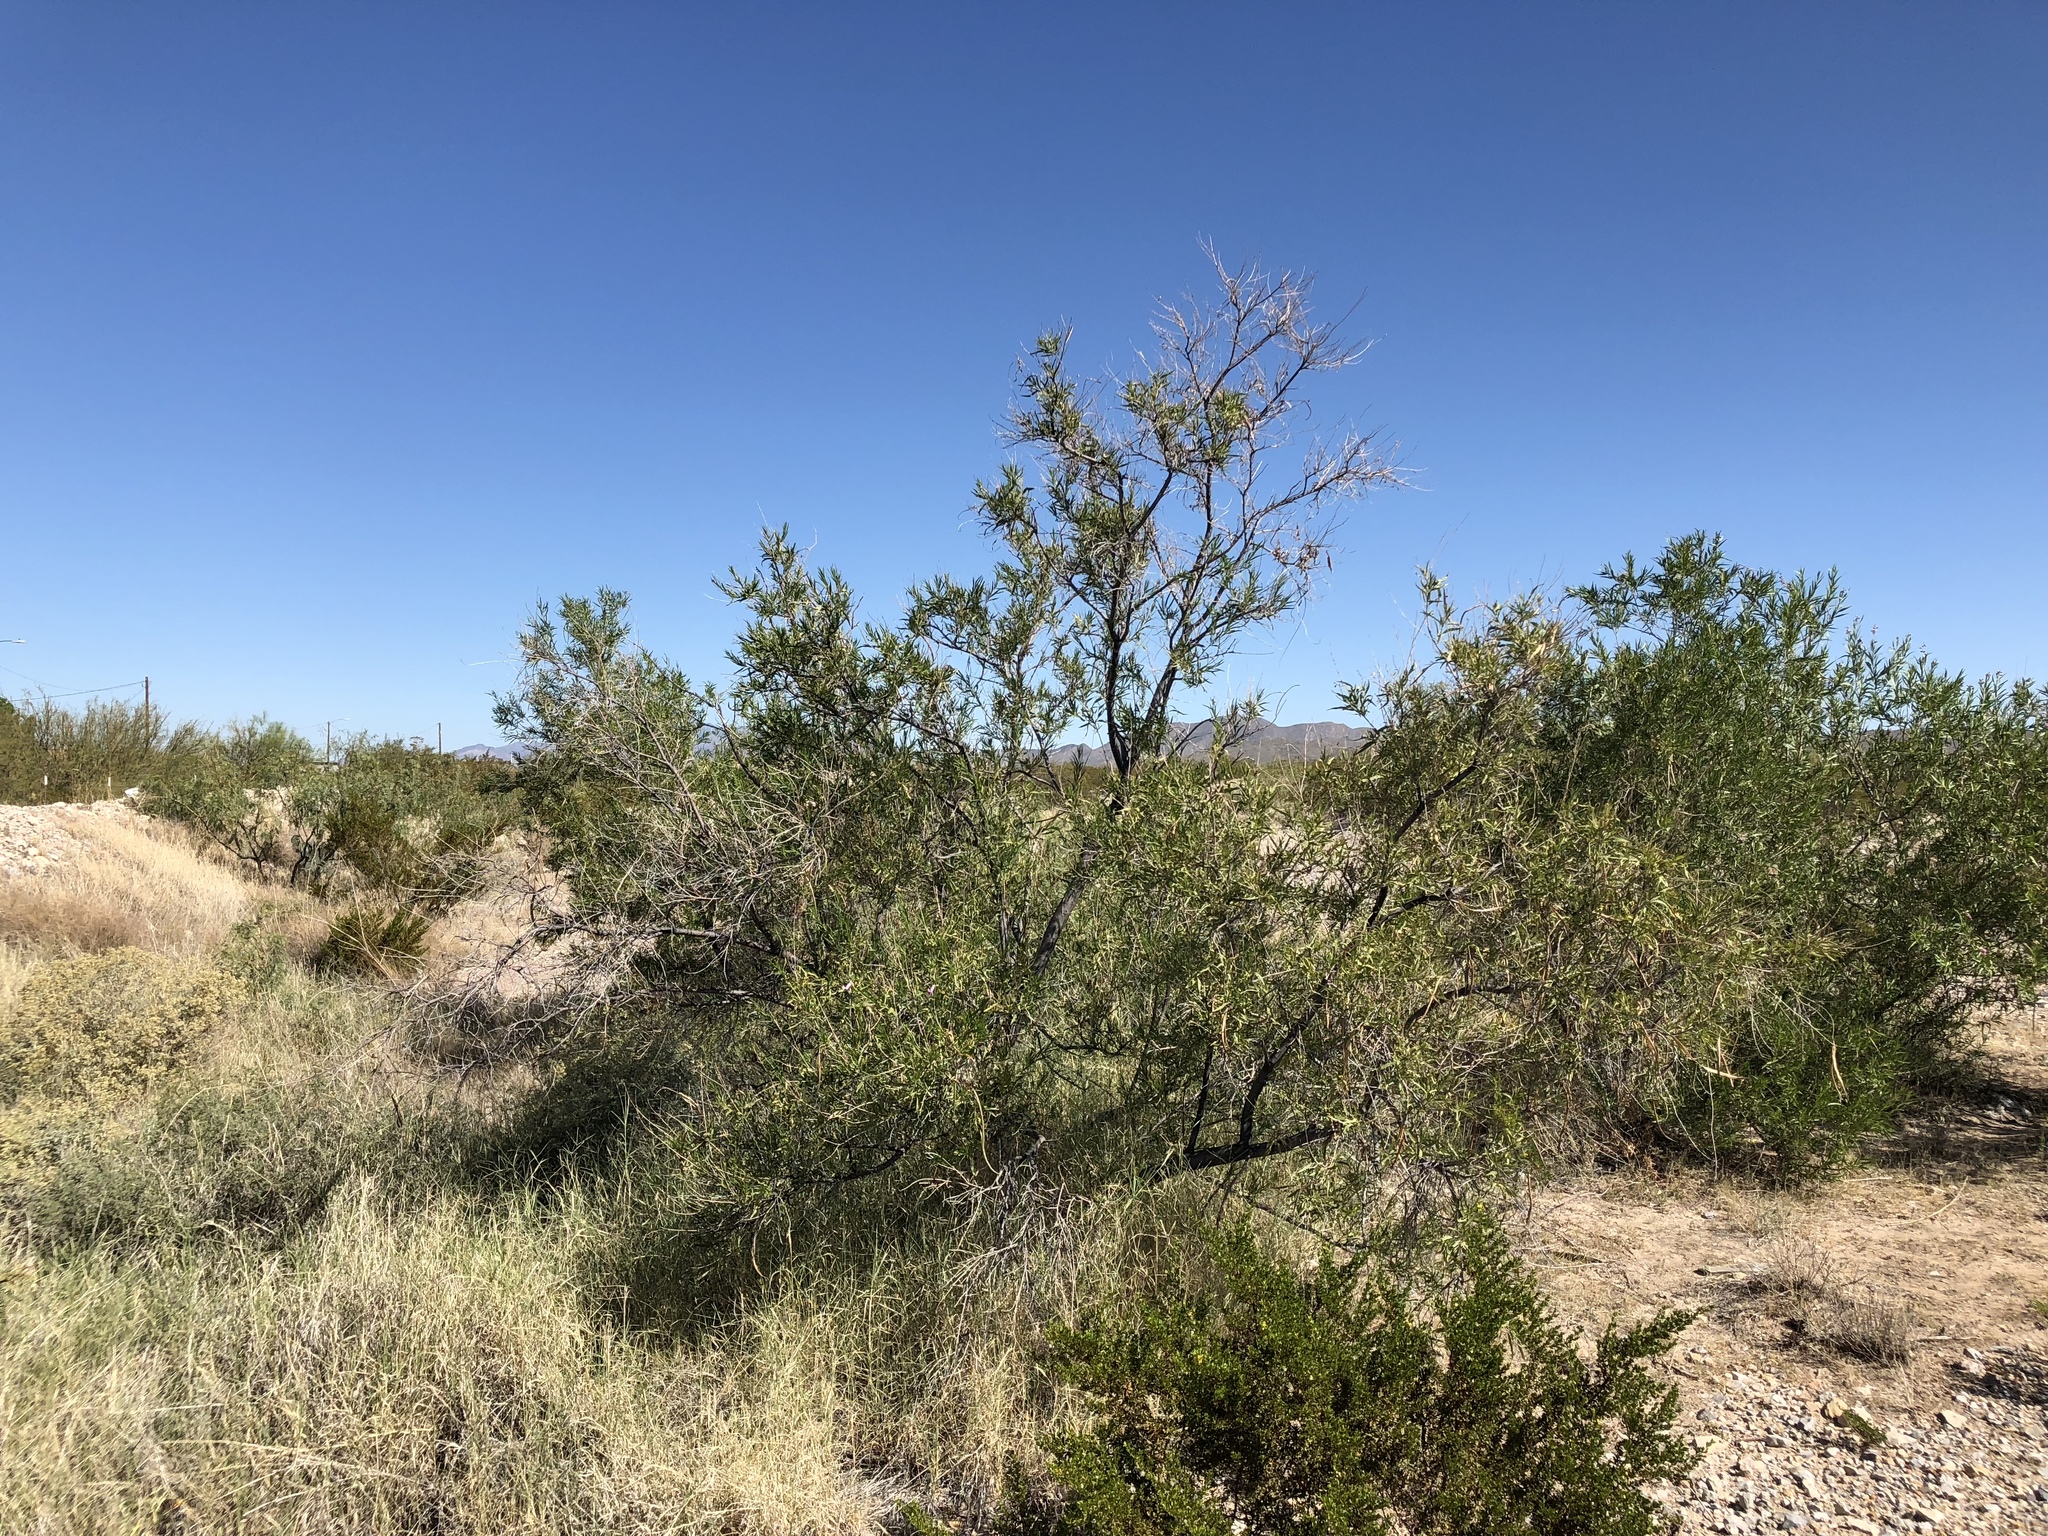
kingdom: Plantae
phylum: Tracheophyta
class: Magnoliopsida
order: Lamiales
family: Bignoniaceae
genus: Chilopsis
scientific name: Chilopsis linearis
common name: Desert-willow
